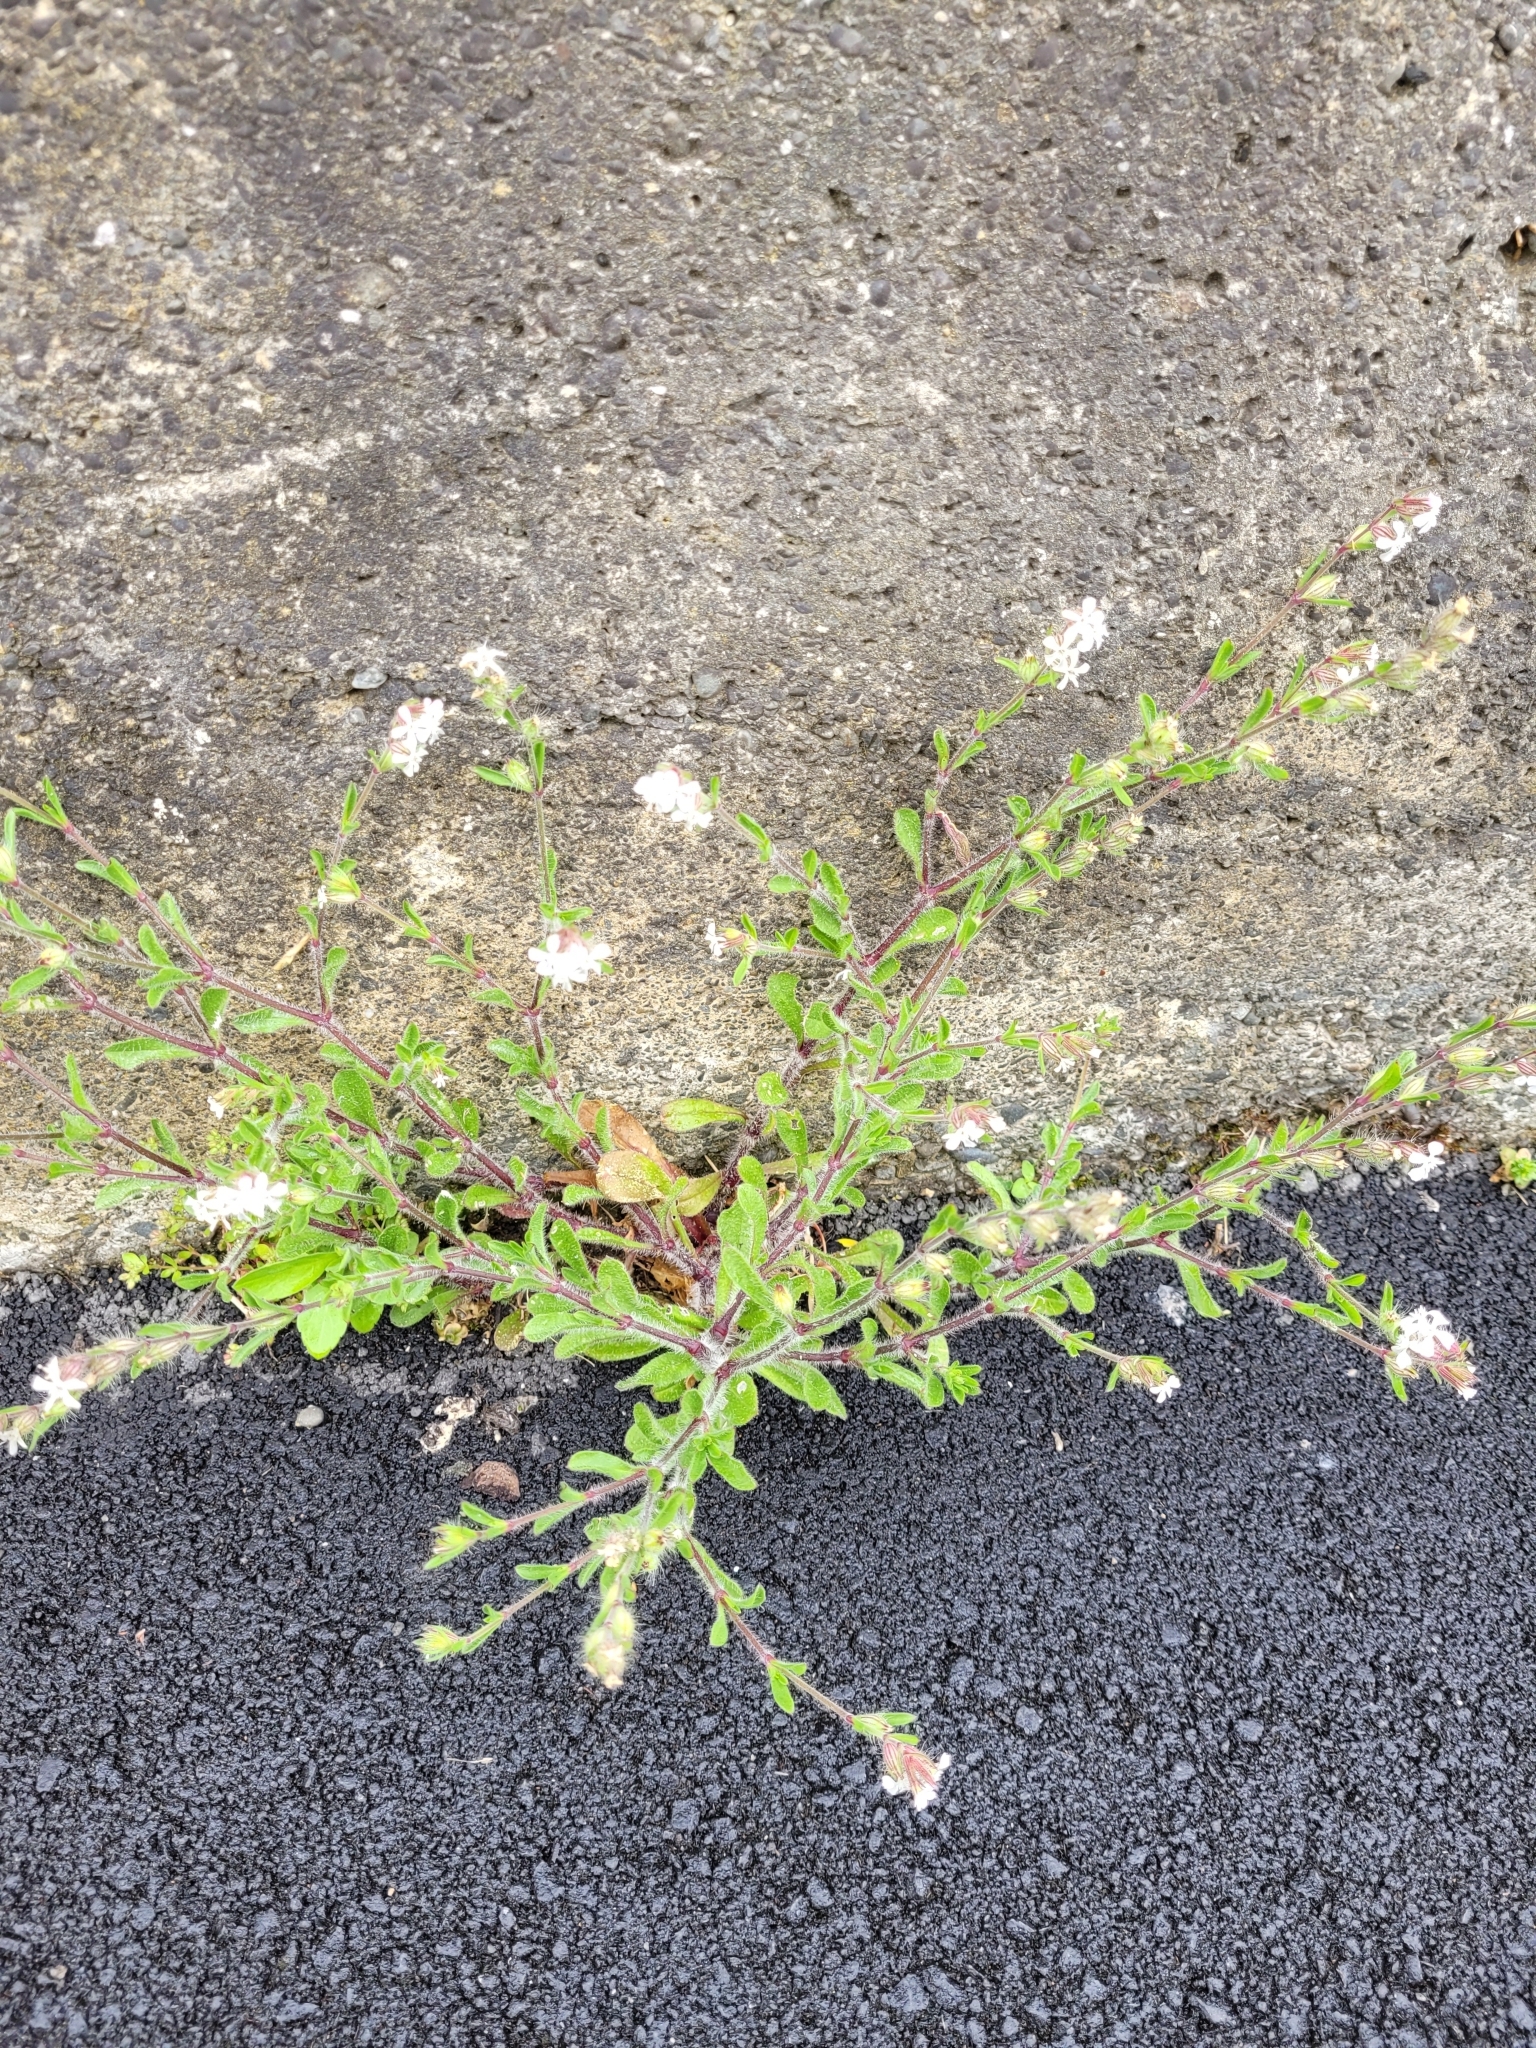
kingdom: Plantae
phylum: Tracheophyta
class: Magnoliopsida
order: Caryophyllales
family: Caryophyllaceae
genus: Silene
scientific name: Silene gallica
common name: Small-flowered catchfly
